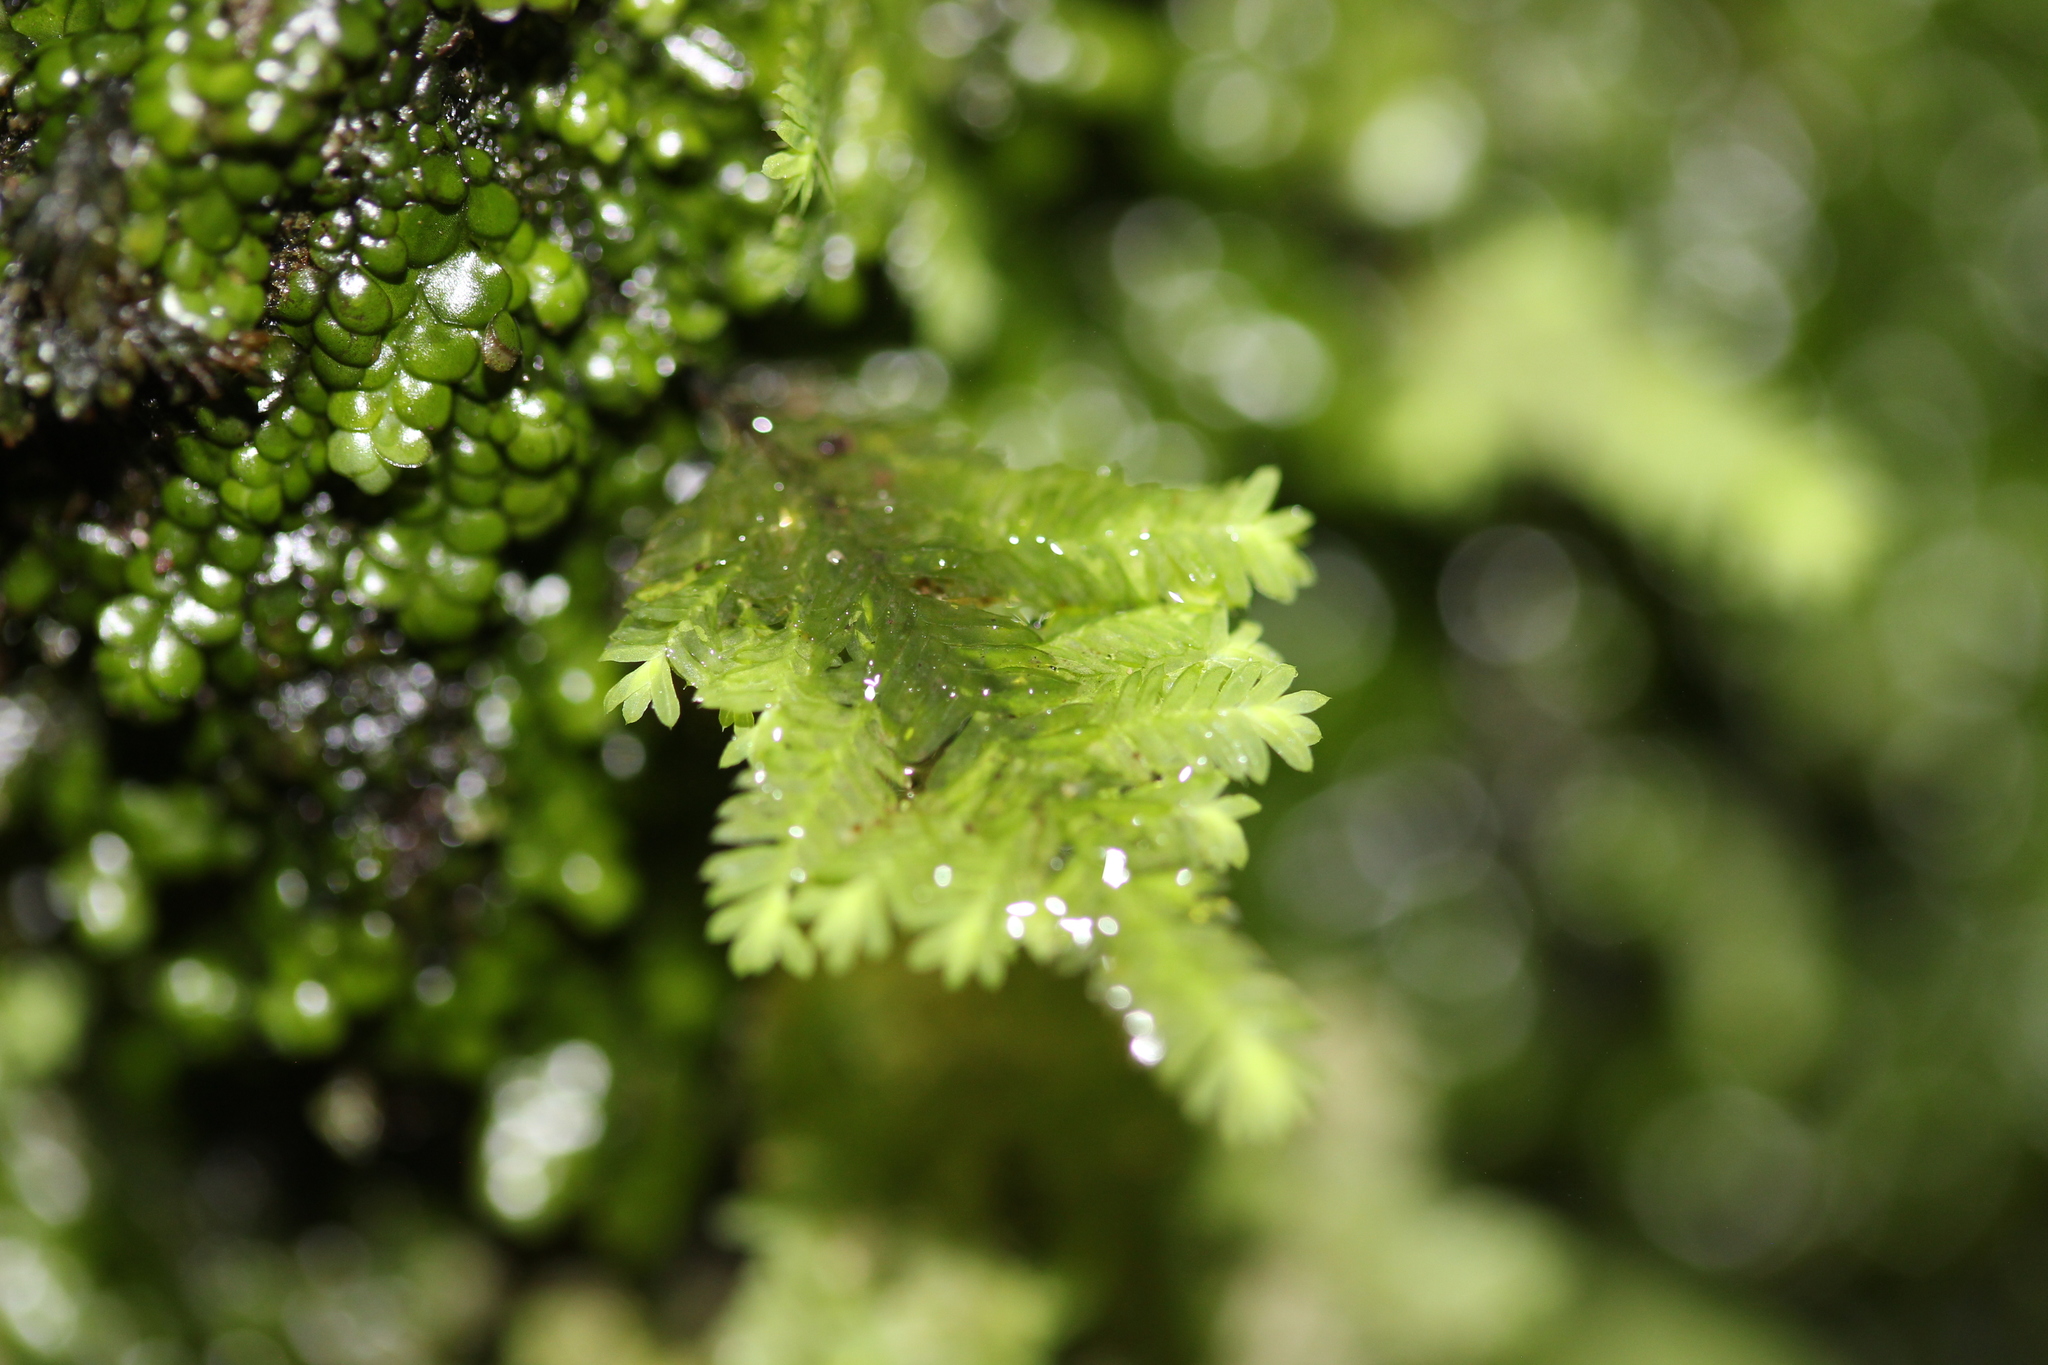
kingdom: Plantae
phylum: Bryophyta
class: Bryopsida
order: Hypopterygiales
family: Hypopterygiaceae
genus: Lopidium
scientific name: Lopidium concinnum
